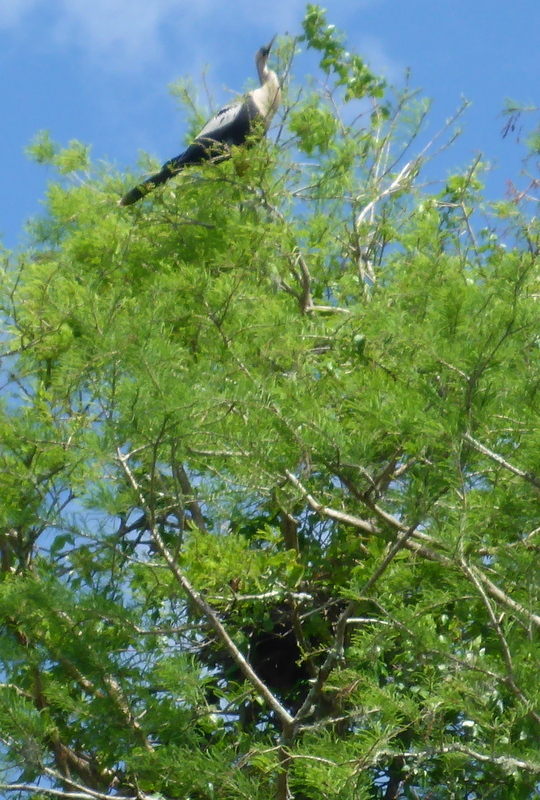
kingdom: Animalia
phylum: Chordata
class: Aves
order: Suliformes
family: Anhingidae
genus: Anhinga
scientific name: Anhinga anhinga
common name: Anhinga
